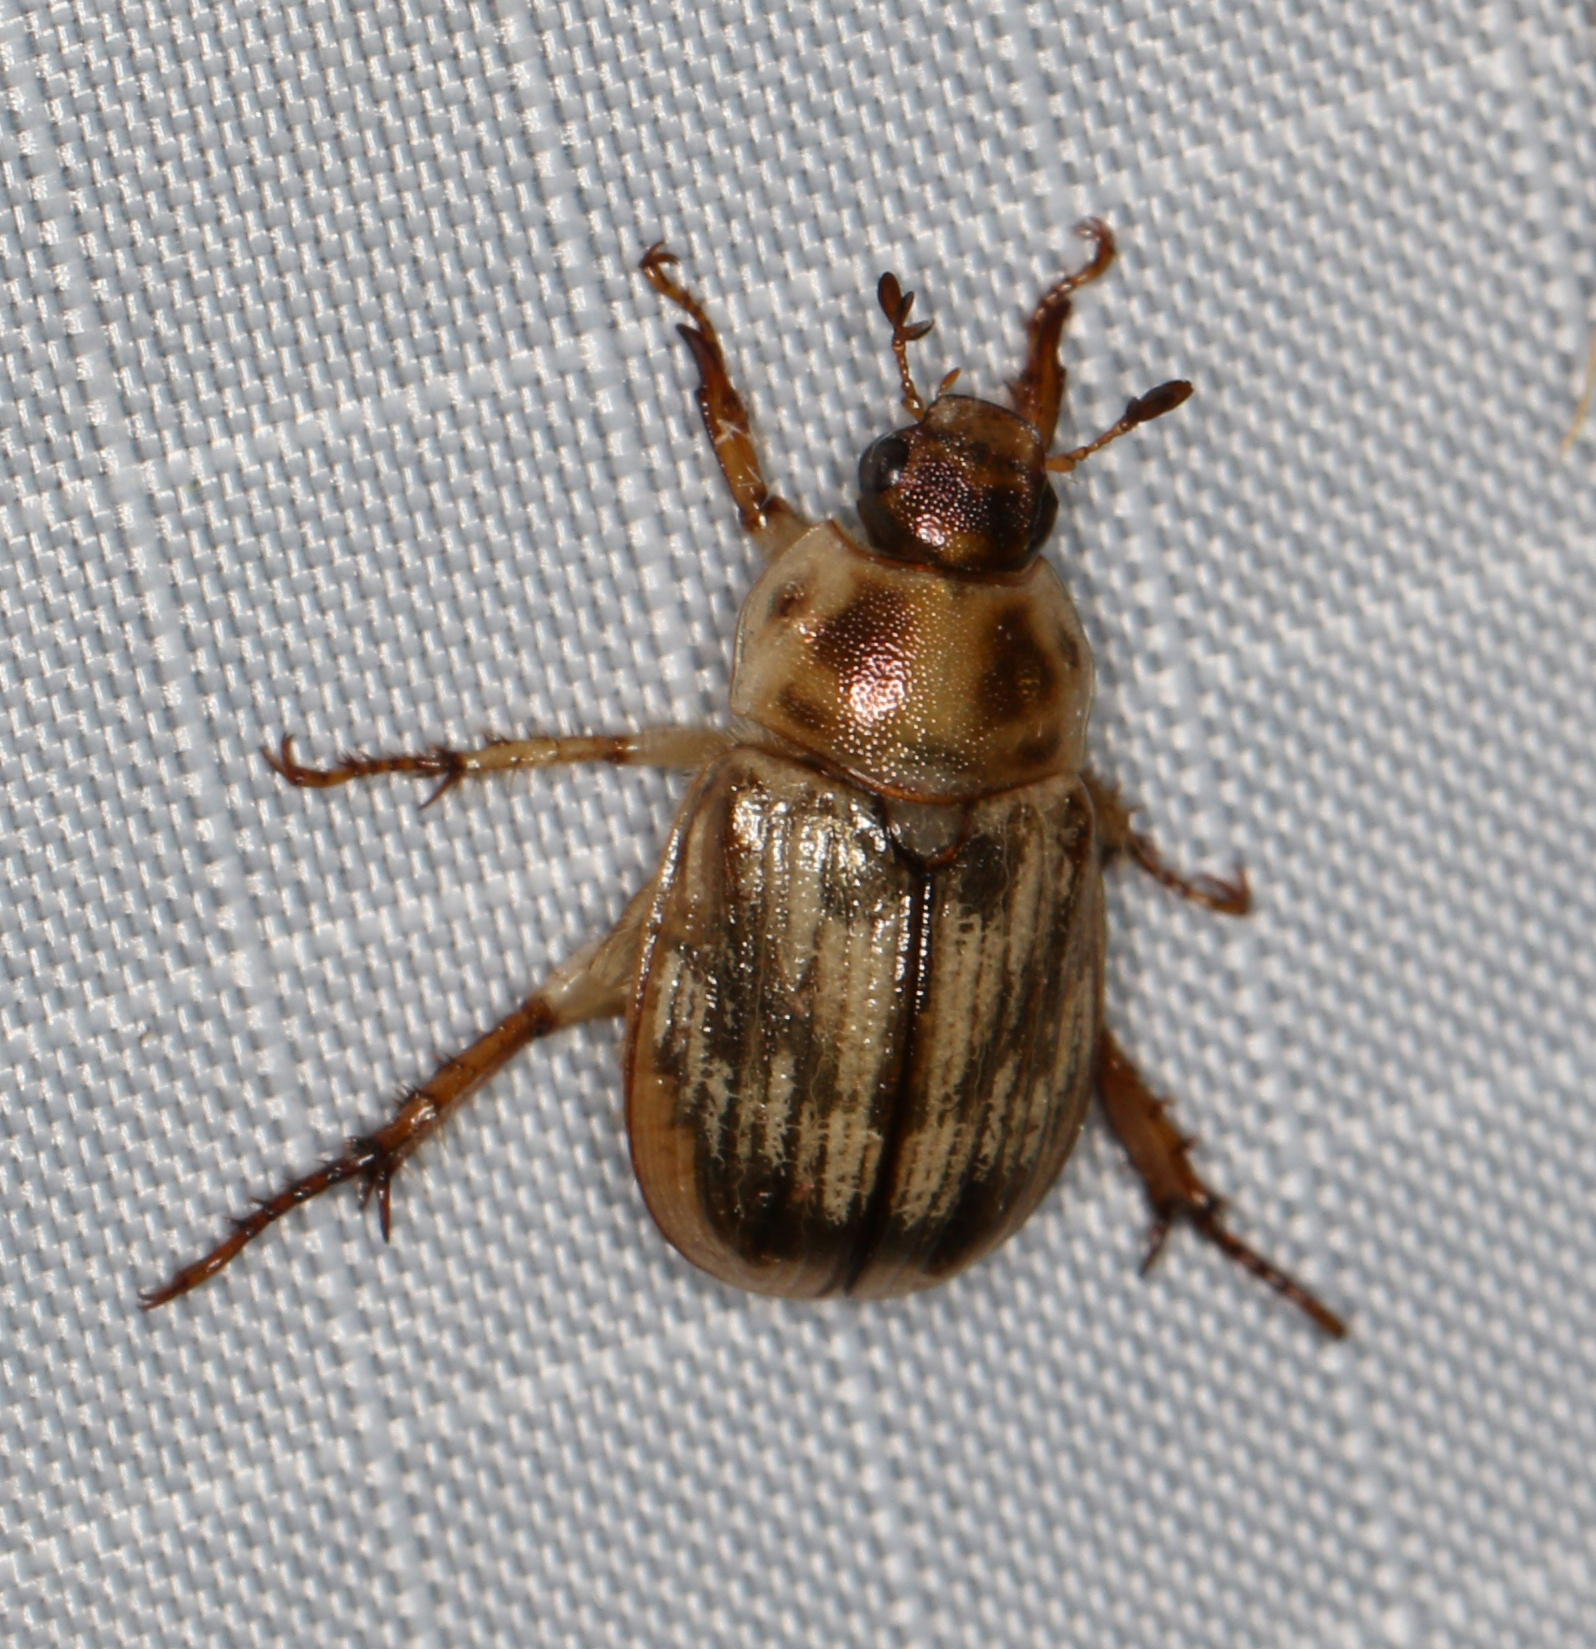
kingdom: Animalia
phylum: Arthropoda
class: Insecta
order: Coleoptera
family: Scarabaeidae
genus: Exomala
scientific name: Exomala orientalis
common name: Oriental beetle
